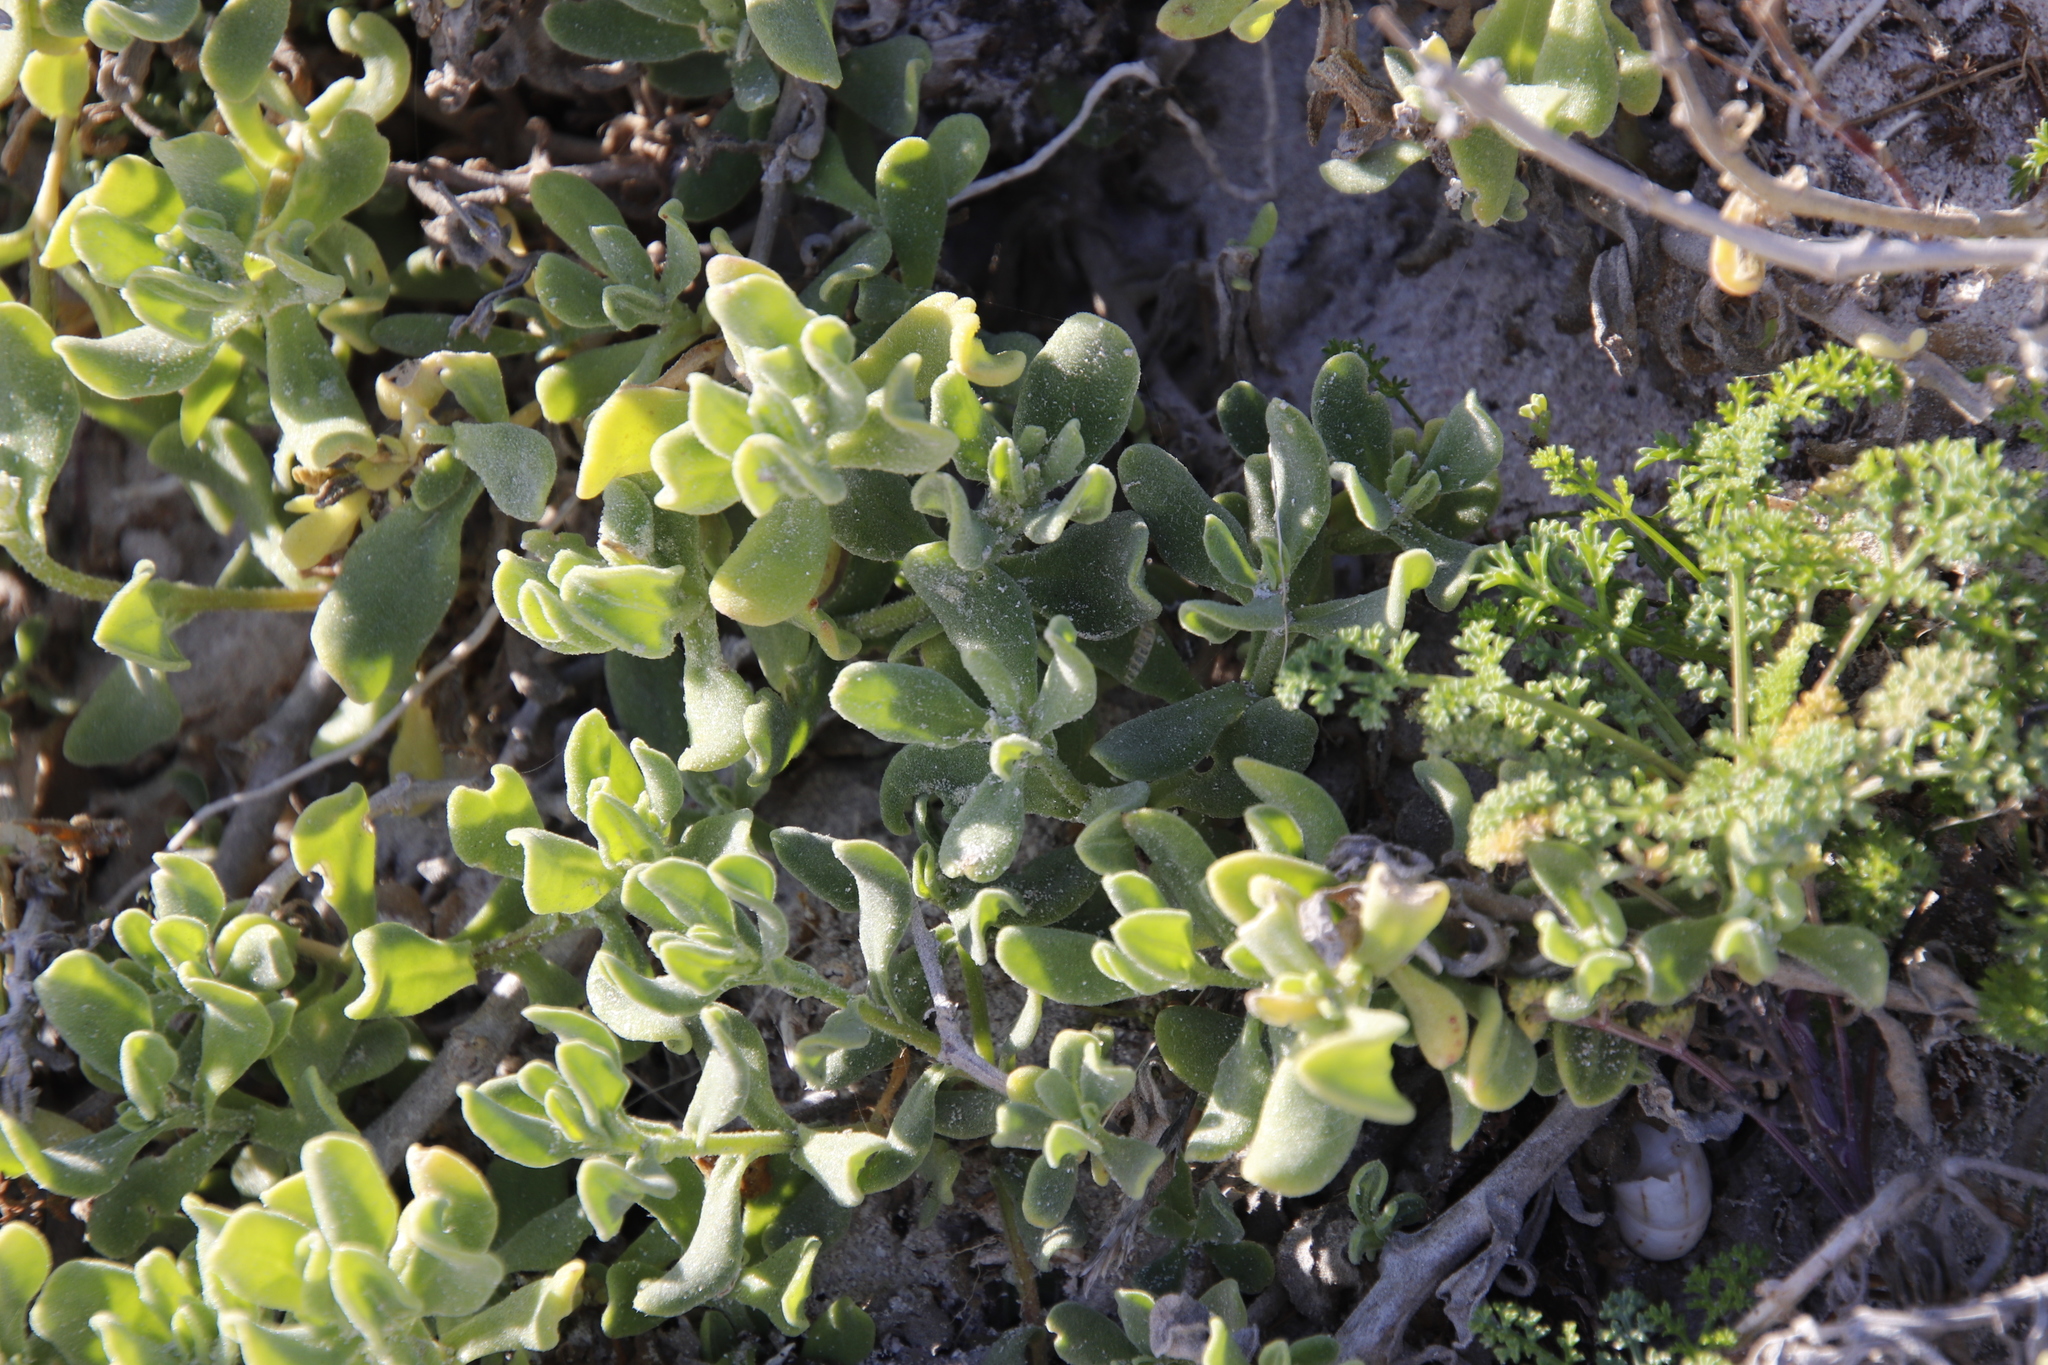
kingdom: Plantae
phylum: Tracheophyta
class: Magnoliopsida
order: Caryophyllales
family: Aizoaceae
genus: Tetragonia
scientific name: Tetragonia decumbens
